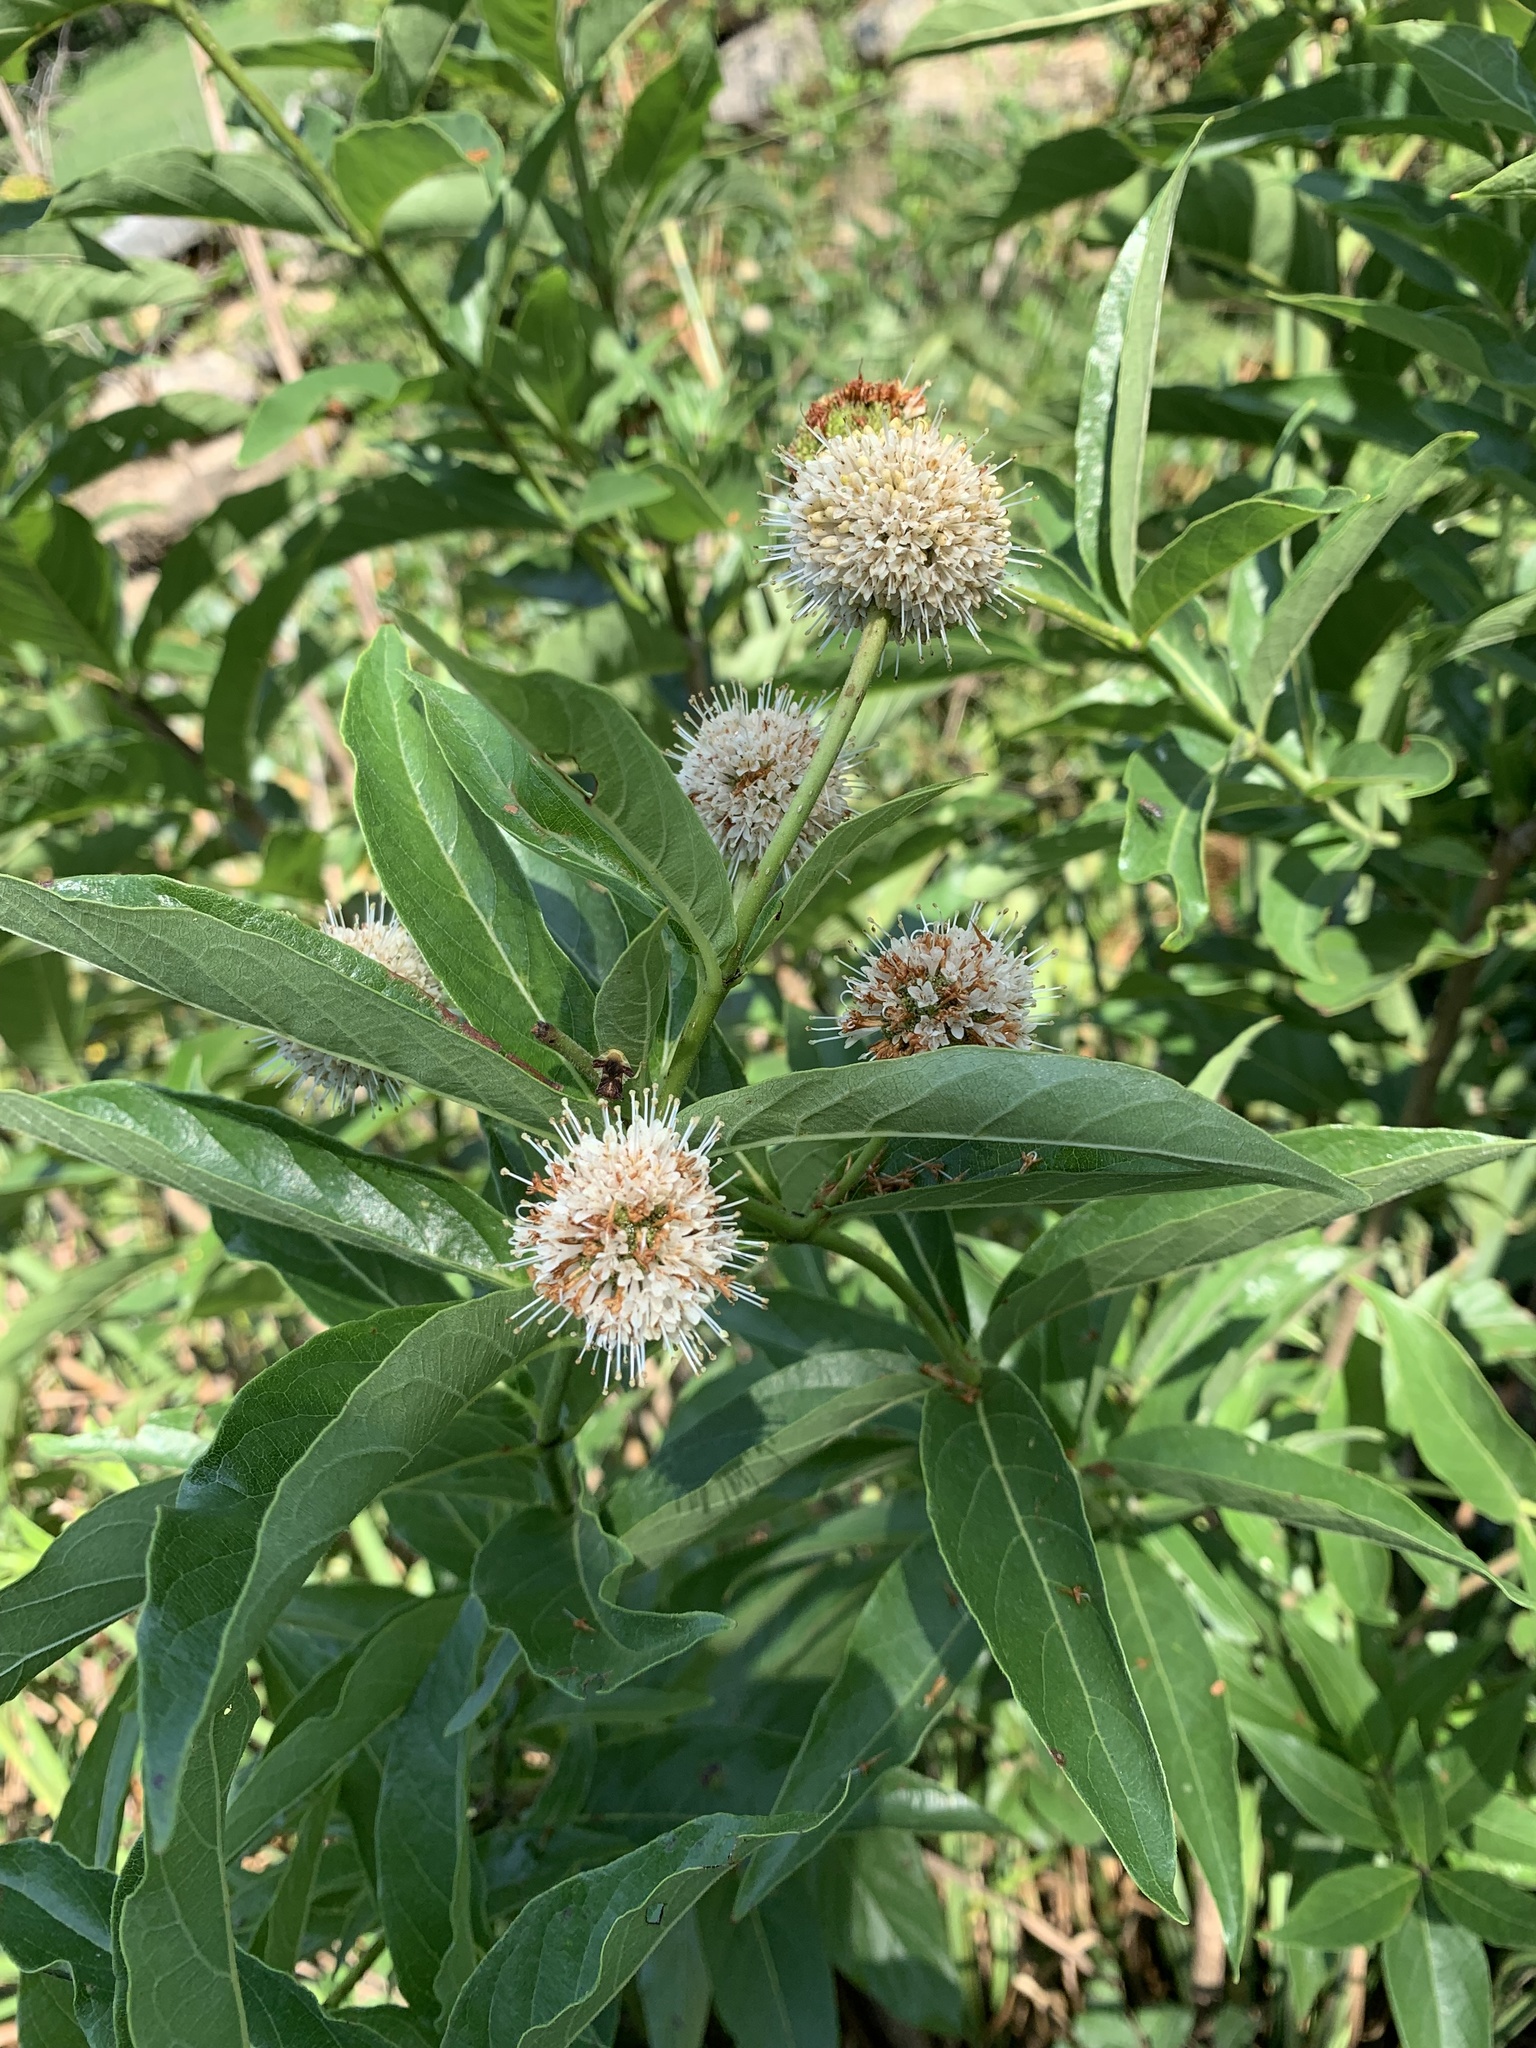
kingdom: Plantae
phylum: Tracheophyta
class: Magnoliopsida
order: Gentianales
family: Rubiaceae
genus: Cephalanthus
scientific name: Cephalanthus occidentalis
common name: Button-willow
